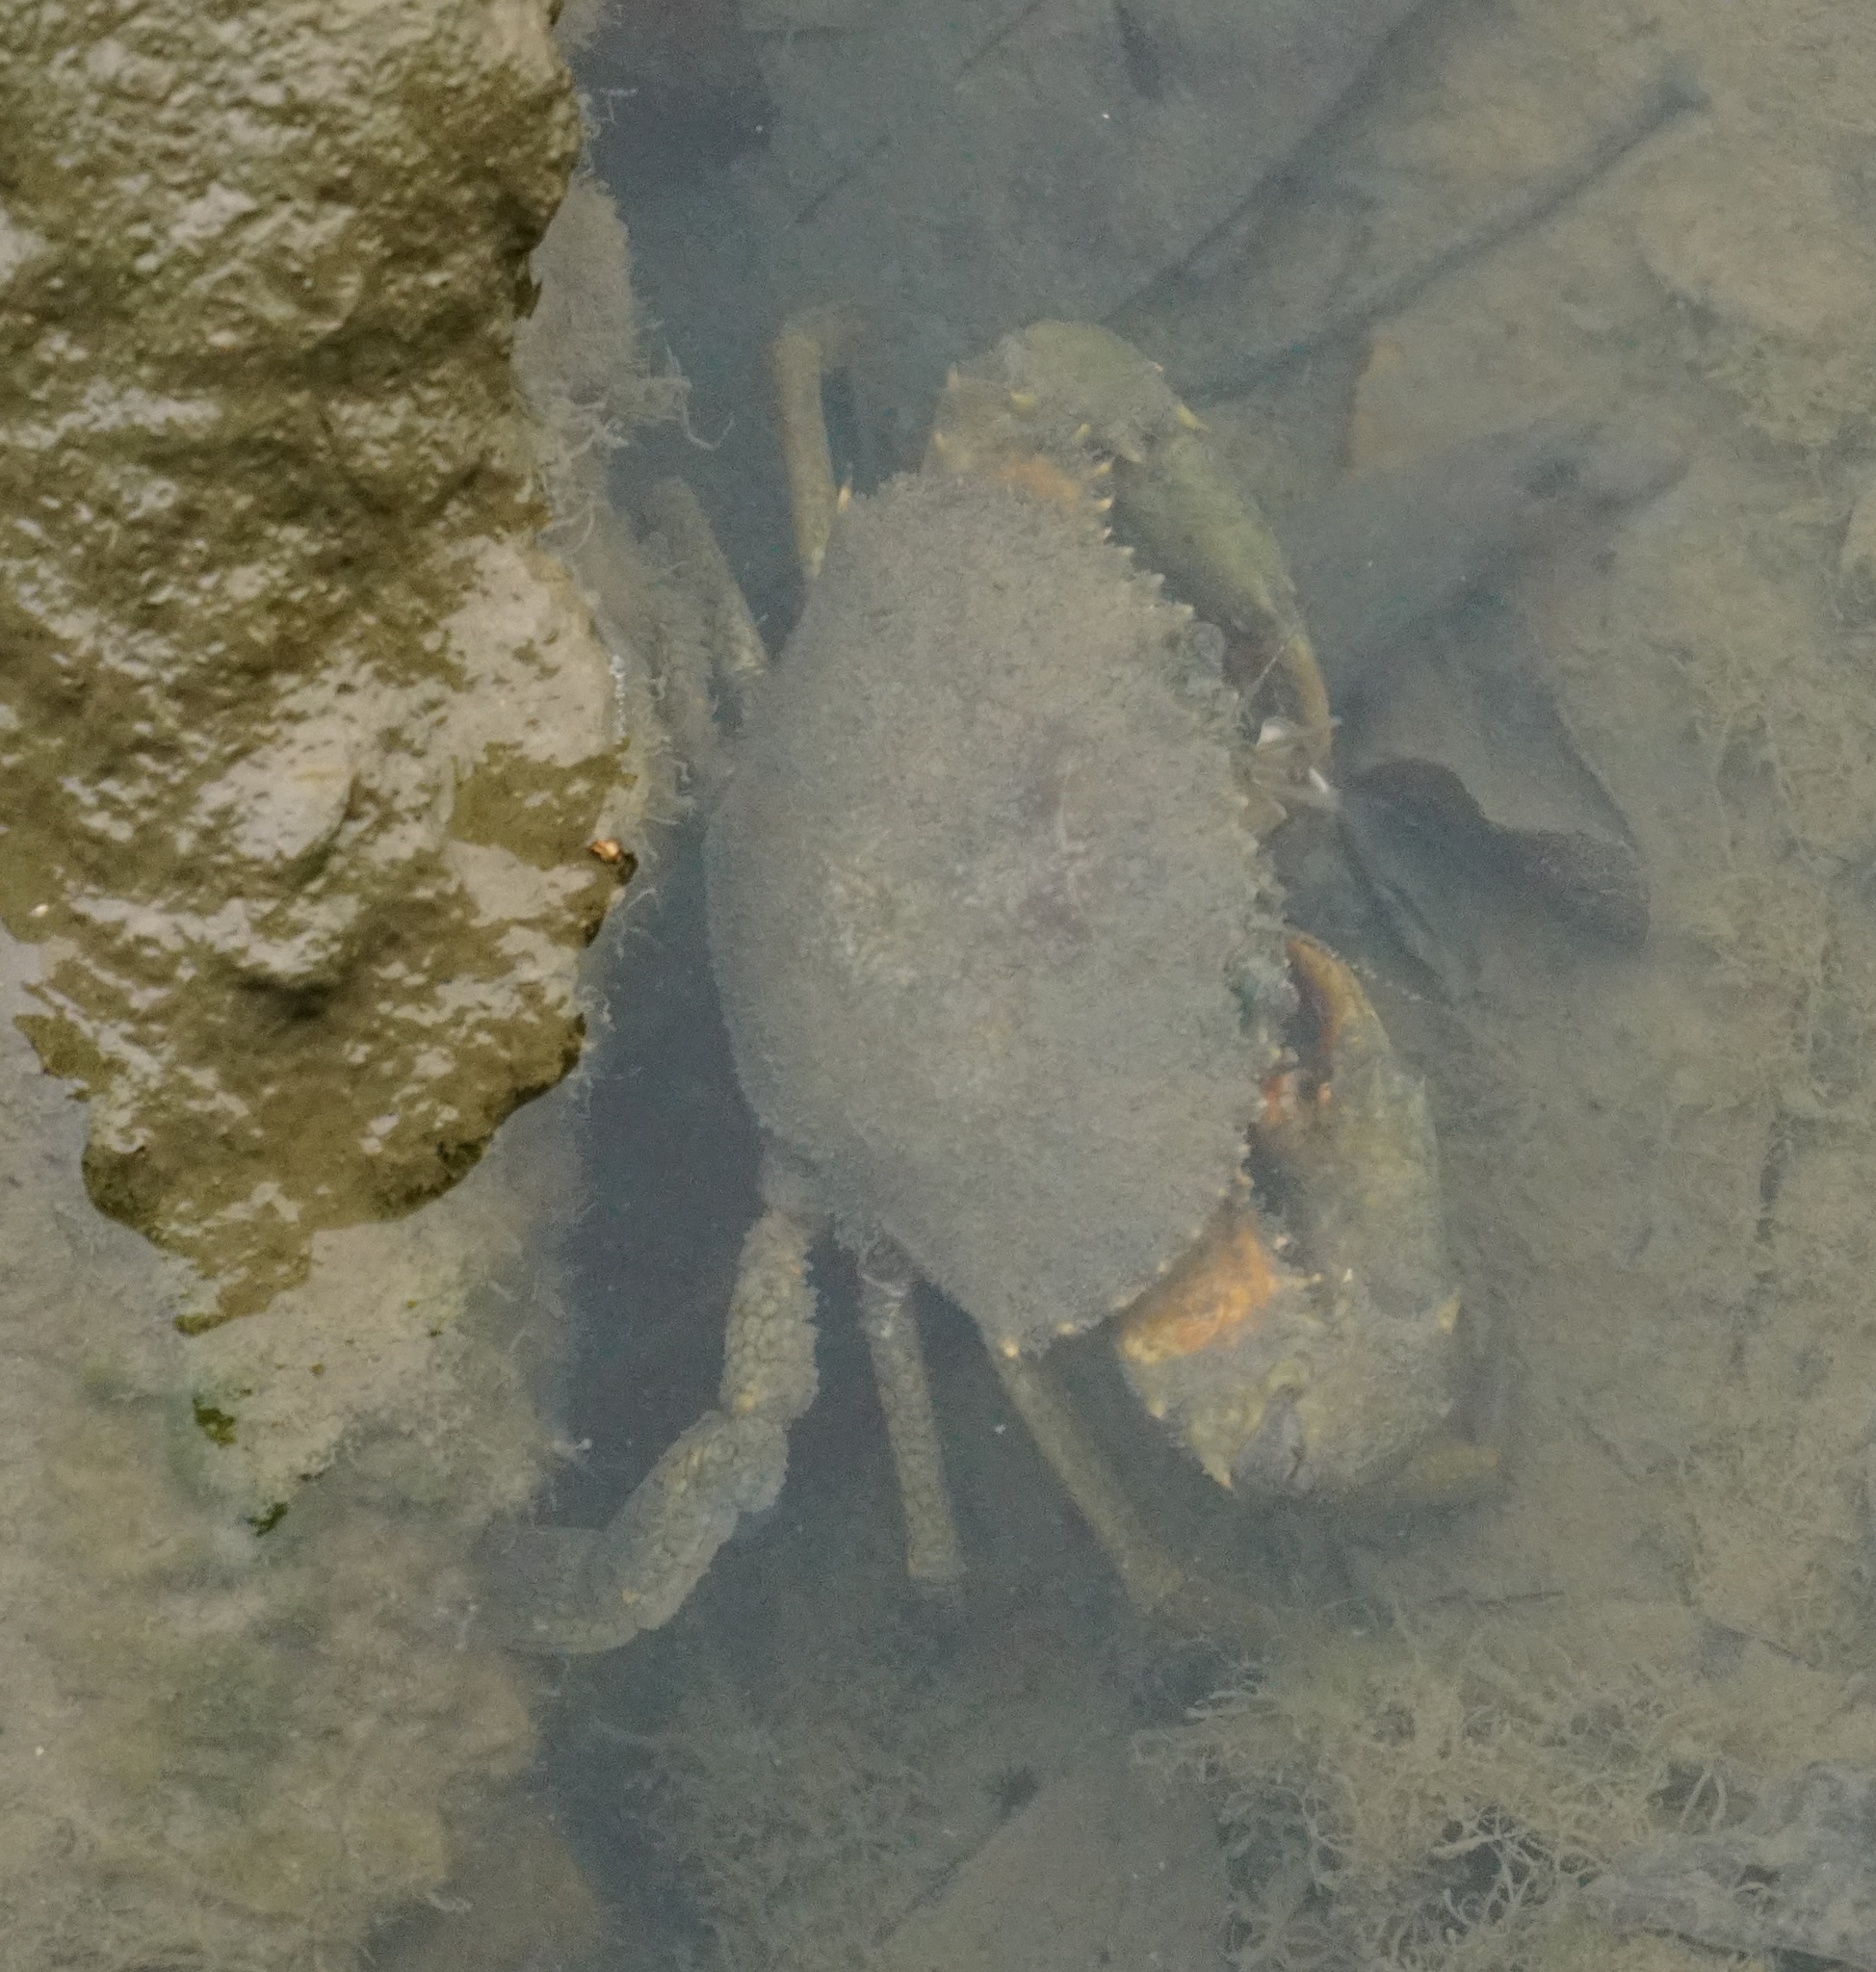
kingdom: Animalia
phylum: Arthropoda
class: Malacostraca
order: Decapoda
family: Portunidae
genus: Scylla
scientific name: Scylla serrata
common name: Giant mud crab
